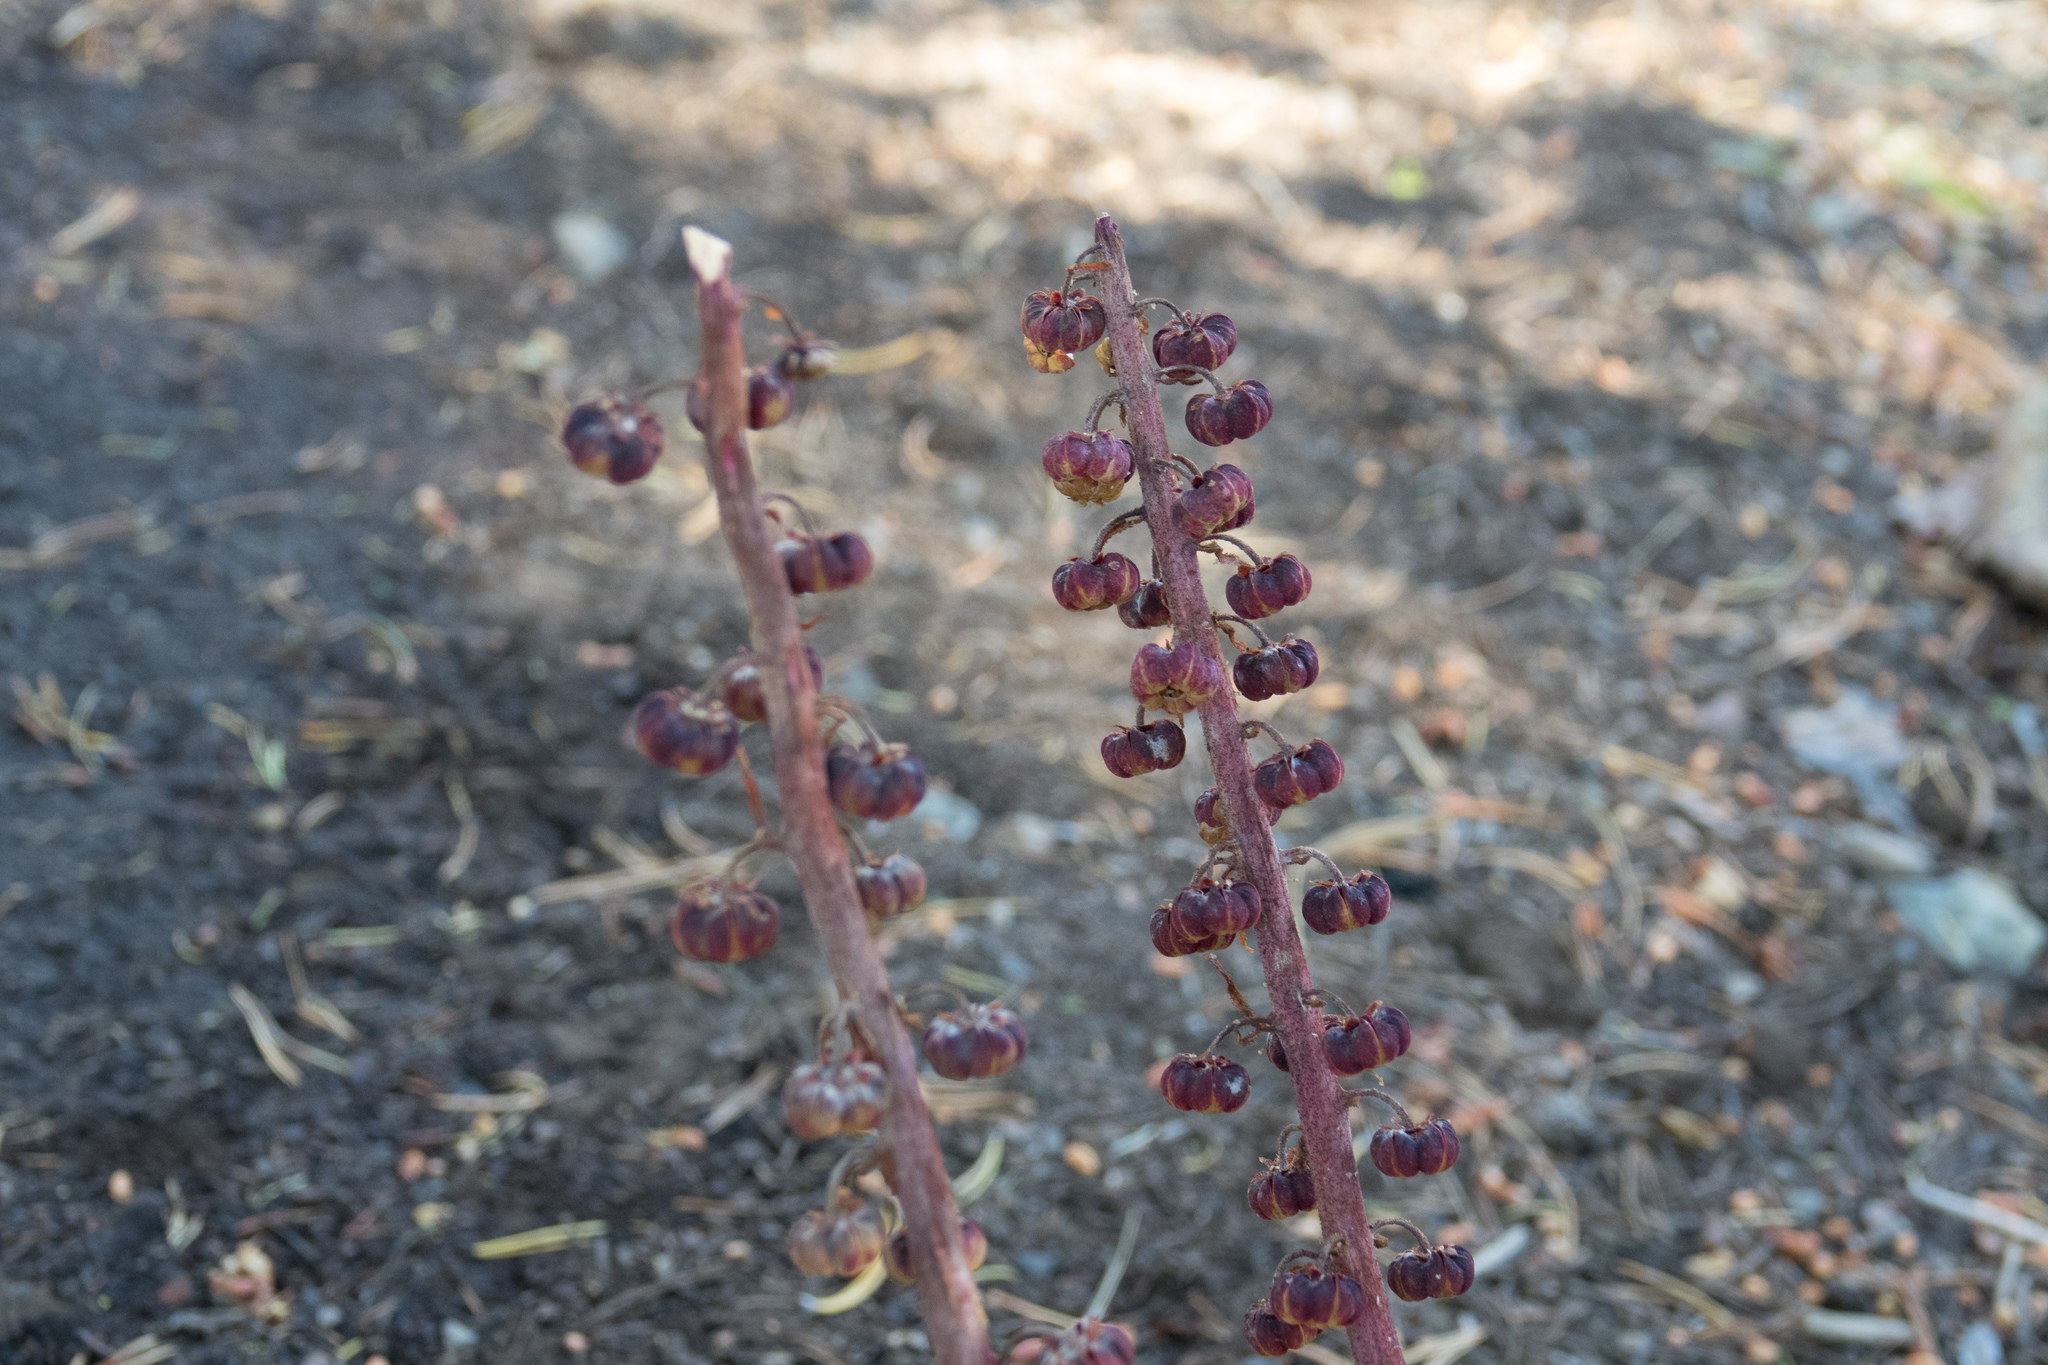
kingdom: Plantae
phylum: Tracheophyta
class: Magnoliopsida
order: Ericales
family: Ericaceae
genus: Pterospora
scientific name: Pterospora andromedea
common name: Giant bird's-nest
